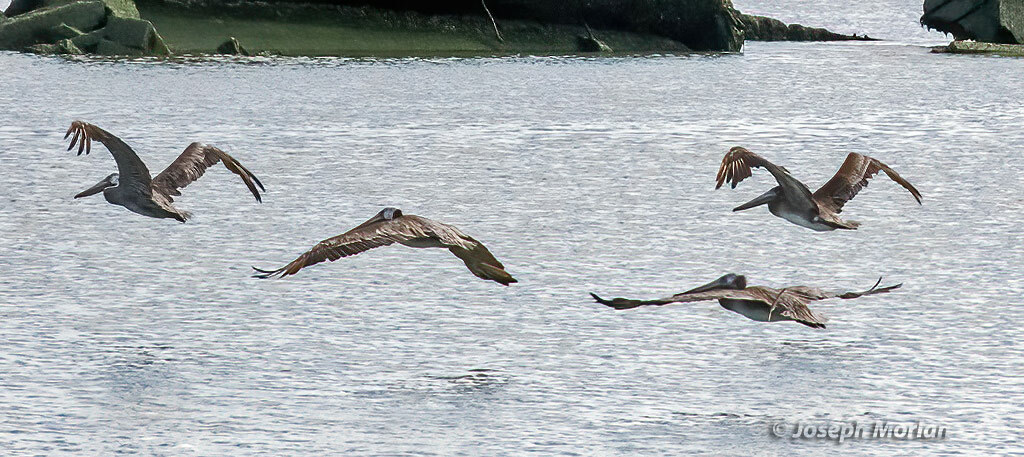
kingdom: Animalia
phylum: Chordata
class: Aves
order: Pelecaniformes
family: Pelecanidae
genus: Pelecanus
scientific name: Pelecanus occidentalis
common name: Brown pelican
